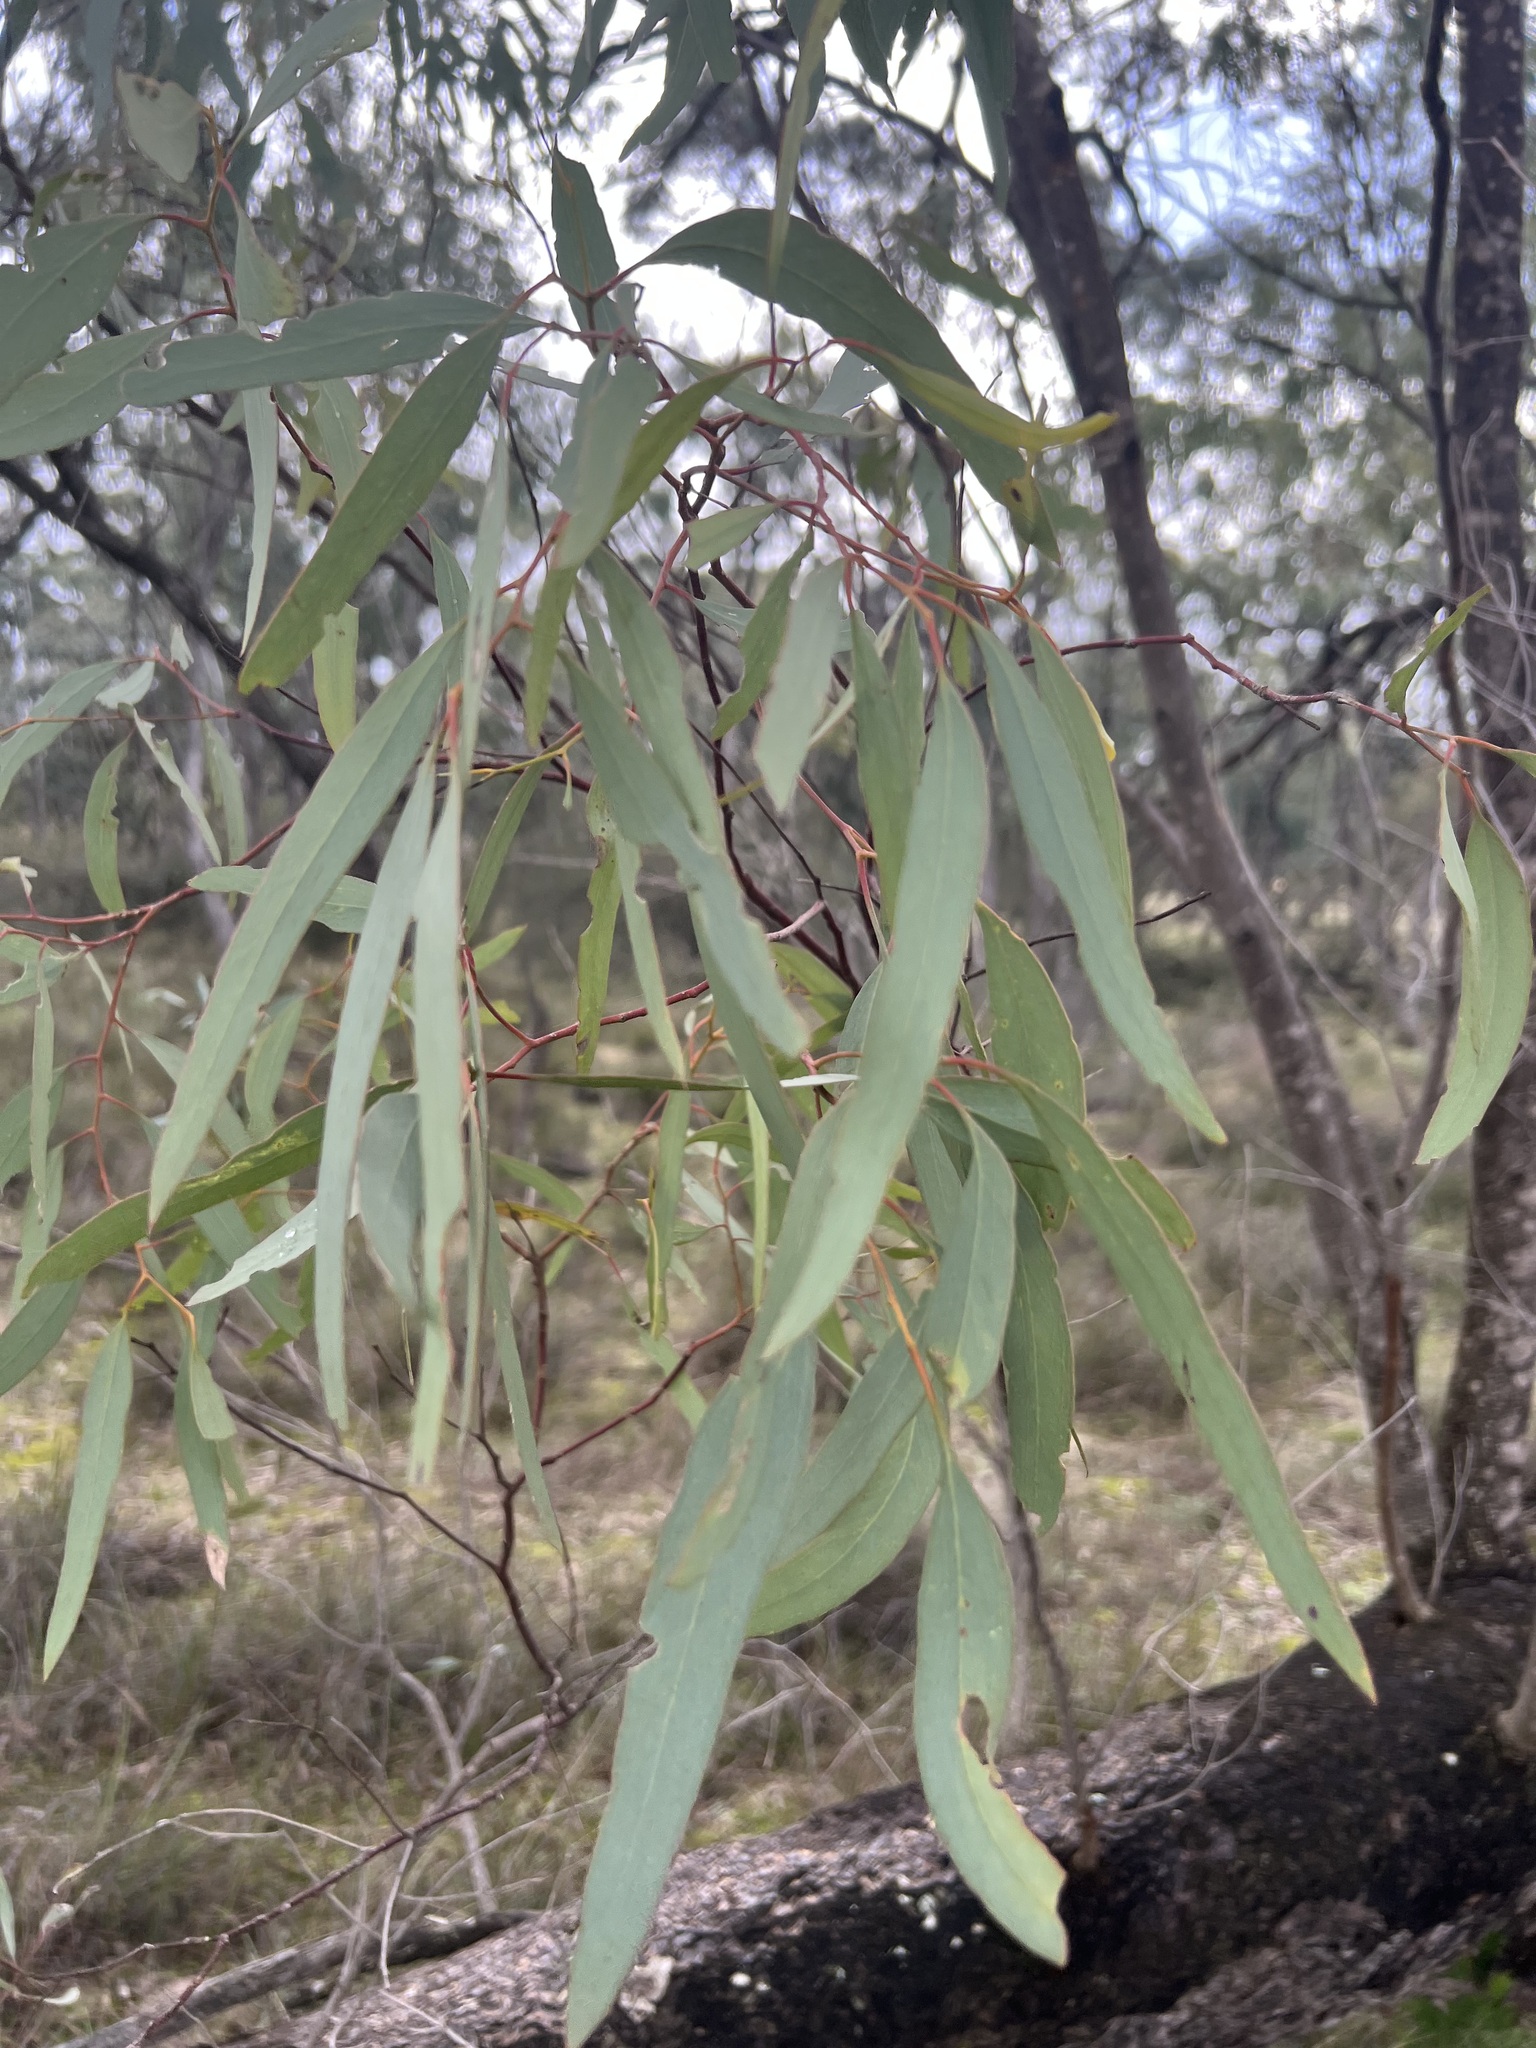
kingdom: Plantae
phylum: Tracheophyta
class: Magnoliopsida
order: Myrtales
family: Myrtaceae
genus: Eucalyptus
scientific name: Eucalyptus largiflorens
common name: Black-box
